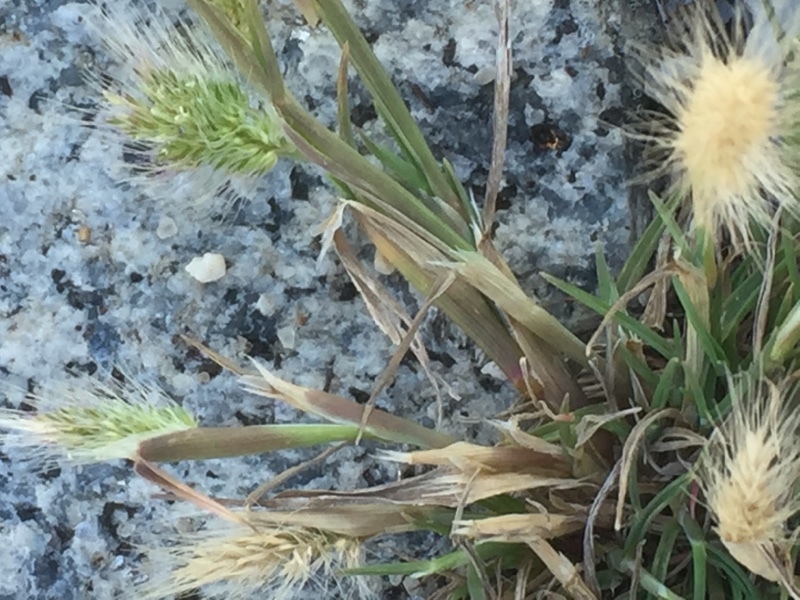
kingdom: Plantae
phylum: Tracheophyta
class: Liliopsida
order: Poales
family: Poaceae
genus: Cynosurus
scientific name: Cynosurus echinatus
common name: Rough dog's-tail
